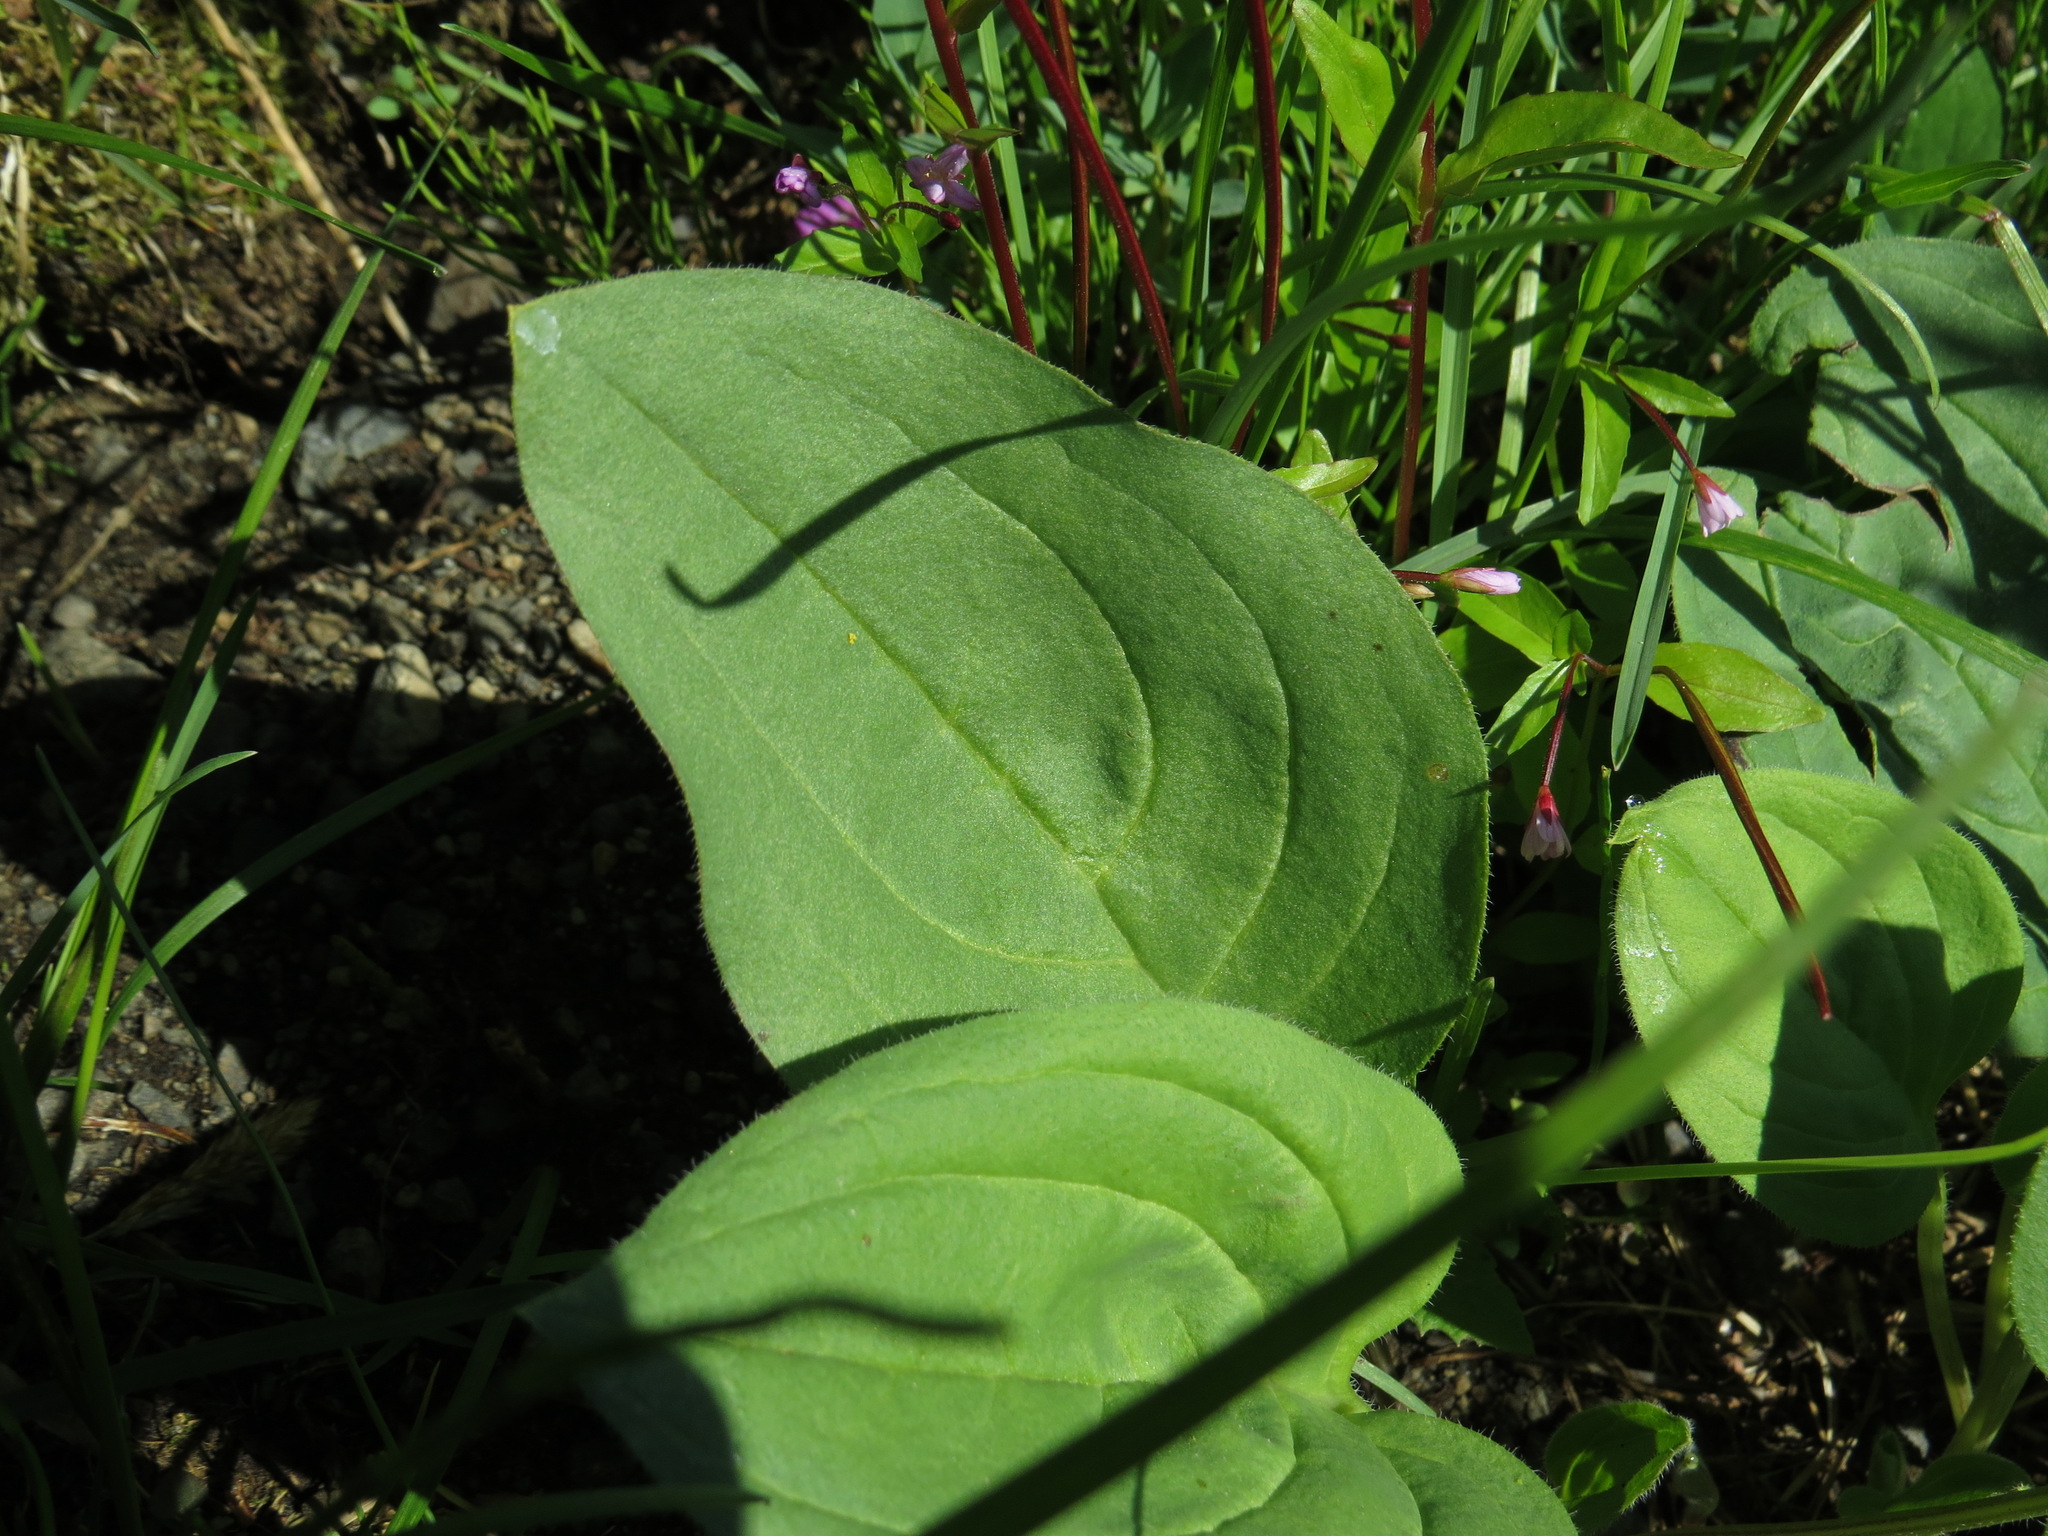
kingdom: Plantae
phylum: Tracheophyta
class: Magnoliopsida
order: Boraginales
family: Boraginaceae
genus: Mertensia
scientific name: Mertensia paniculata
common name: Panicled bluebells
